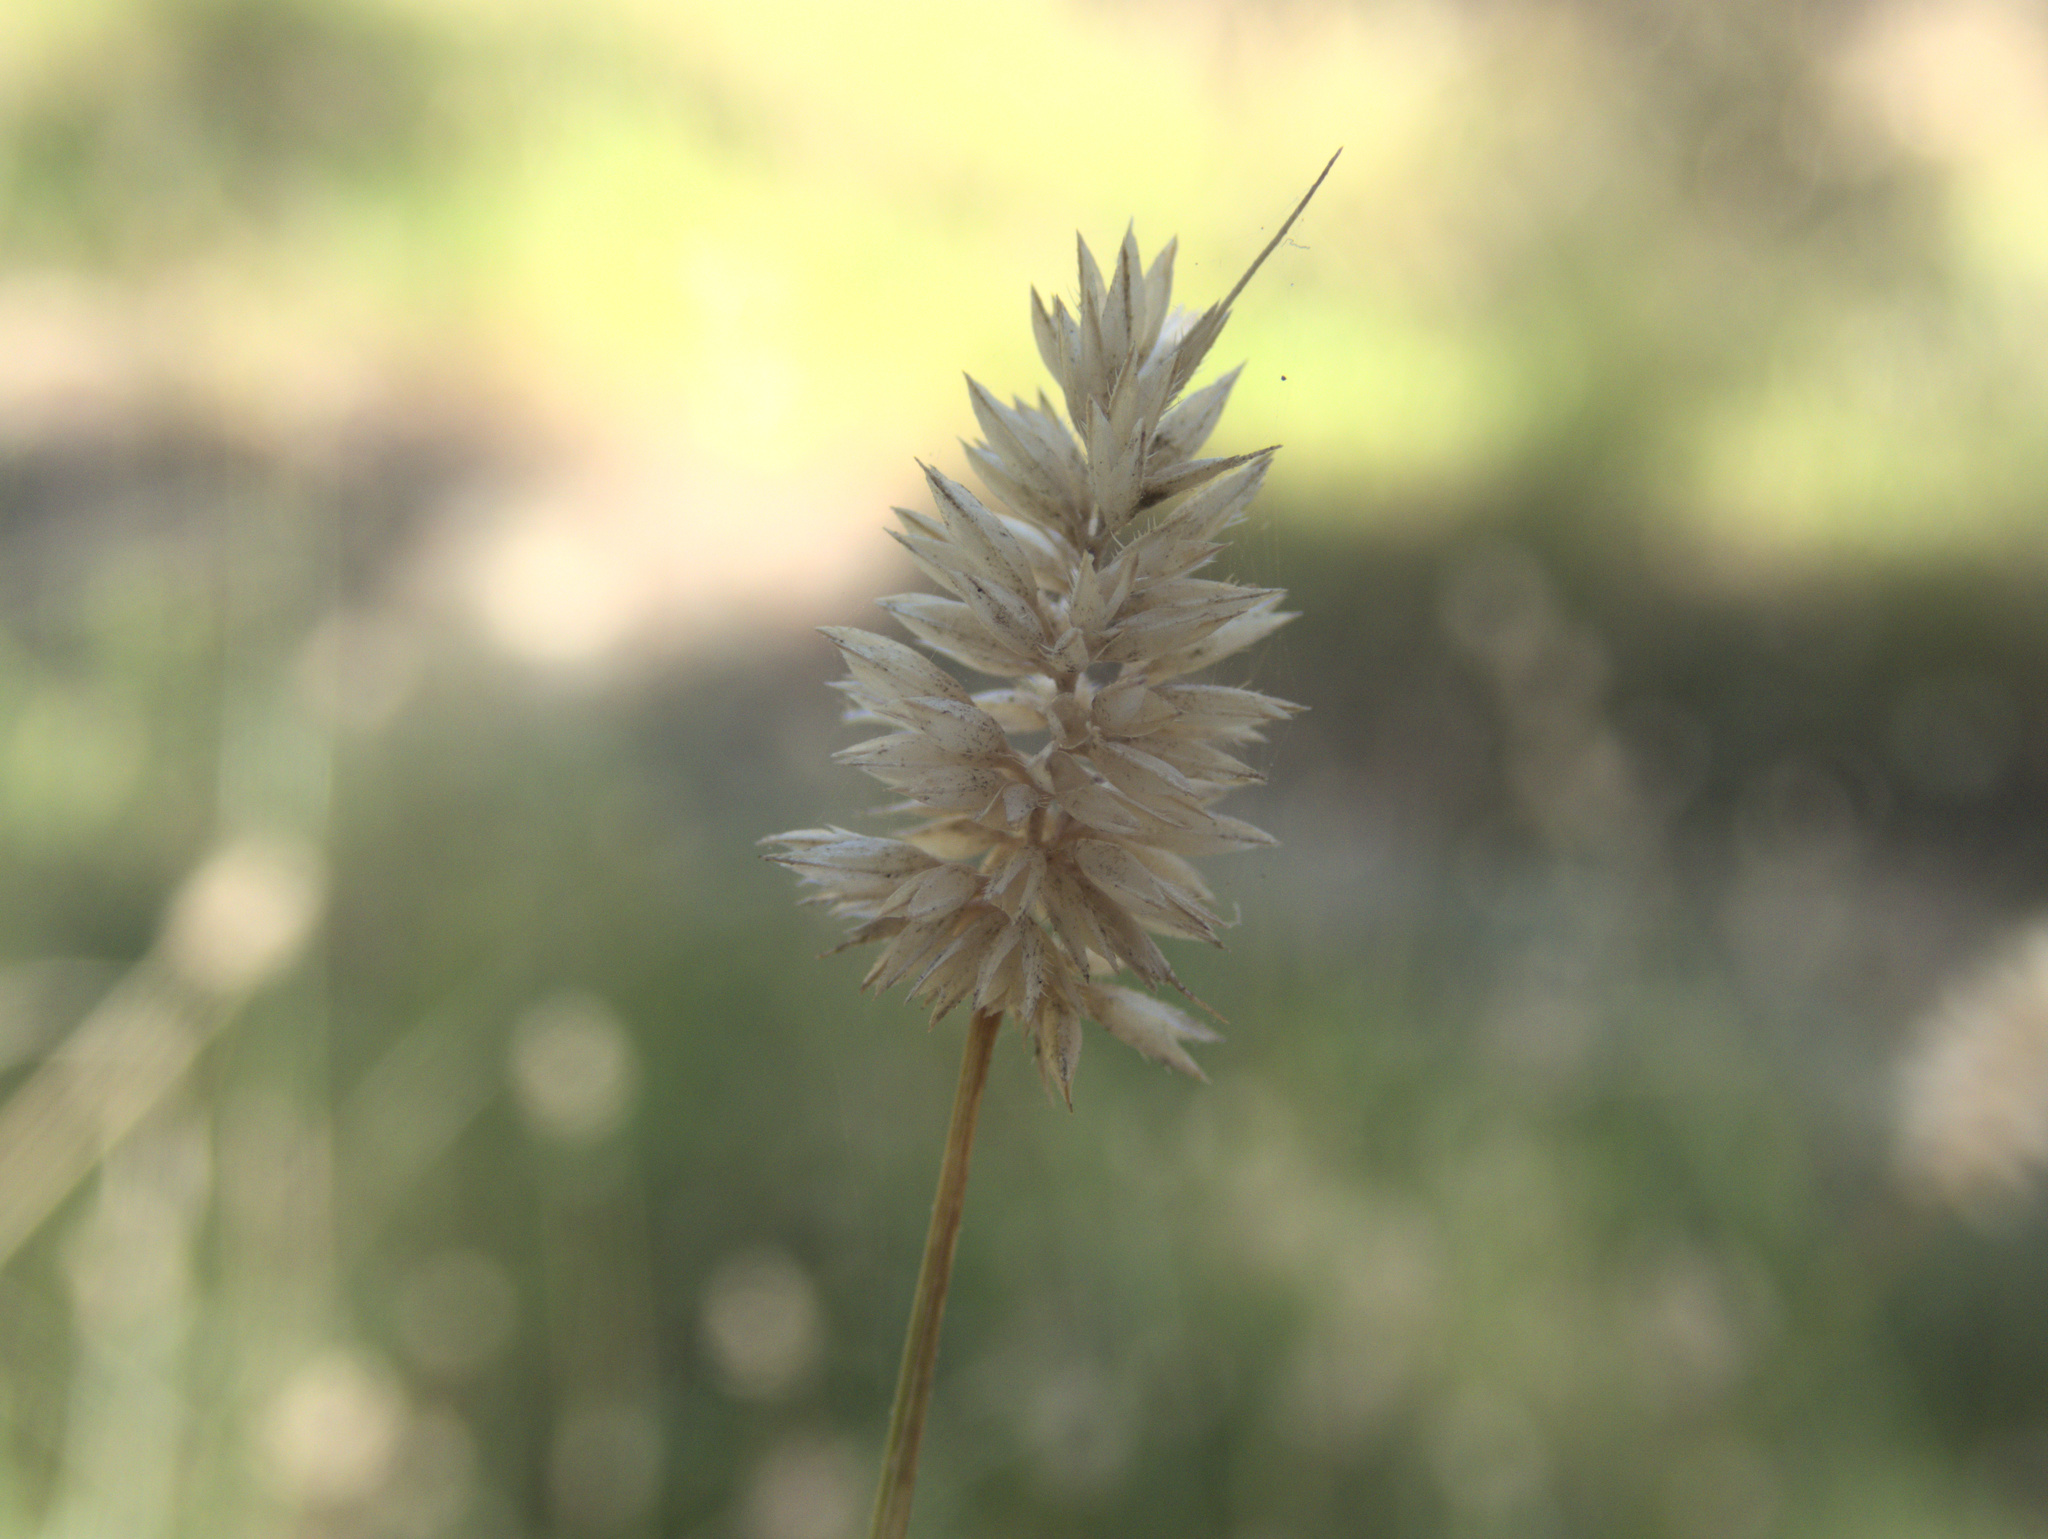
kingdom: Plantae
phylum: Tracheophyta
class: Liliopsida
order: Poales
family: Poaceae
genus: Echinopogon
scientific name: Echinopogon ovatus
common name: Hedgehog-grass
